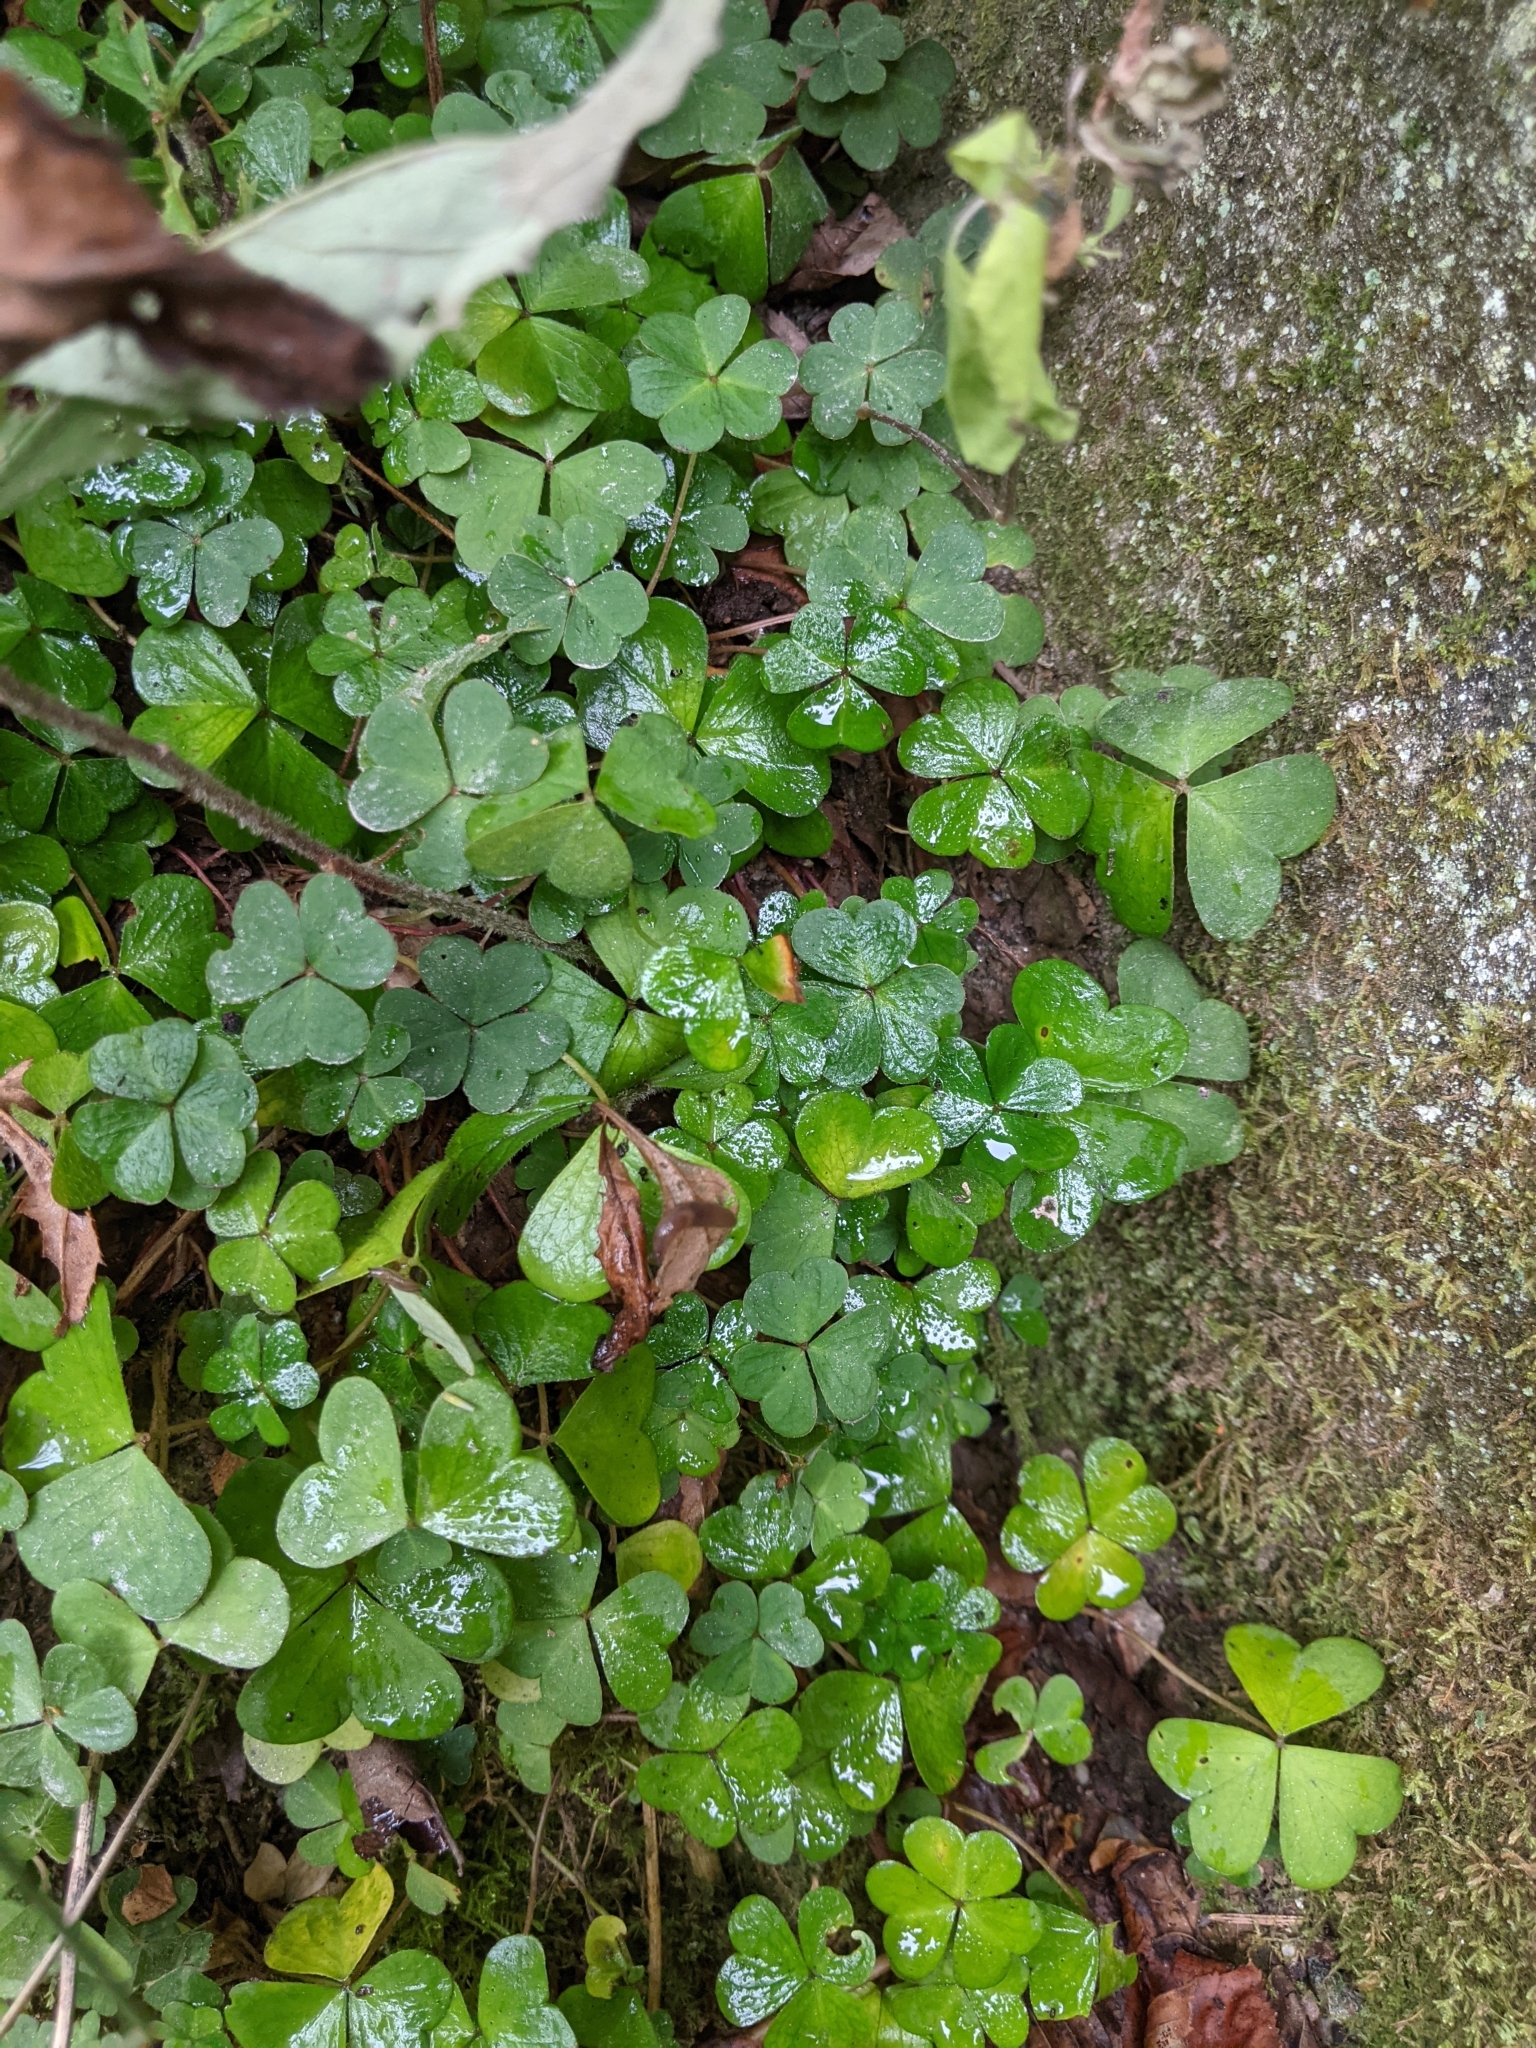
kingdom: Plantae
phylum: Tracheophyta
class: Magnoliopsida
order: Oxalidales
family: Oxalidaceae
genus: Oxalis
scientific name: Oxalis montana
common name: American wood-sorrel
